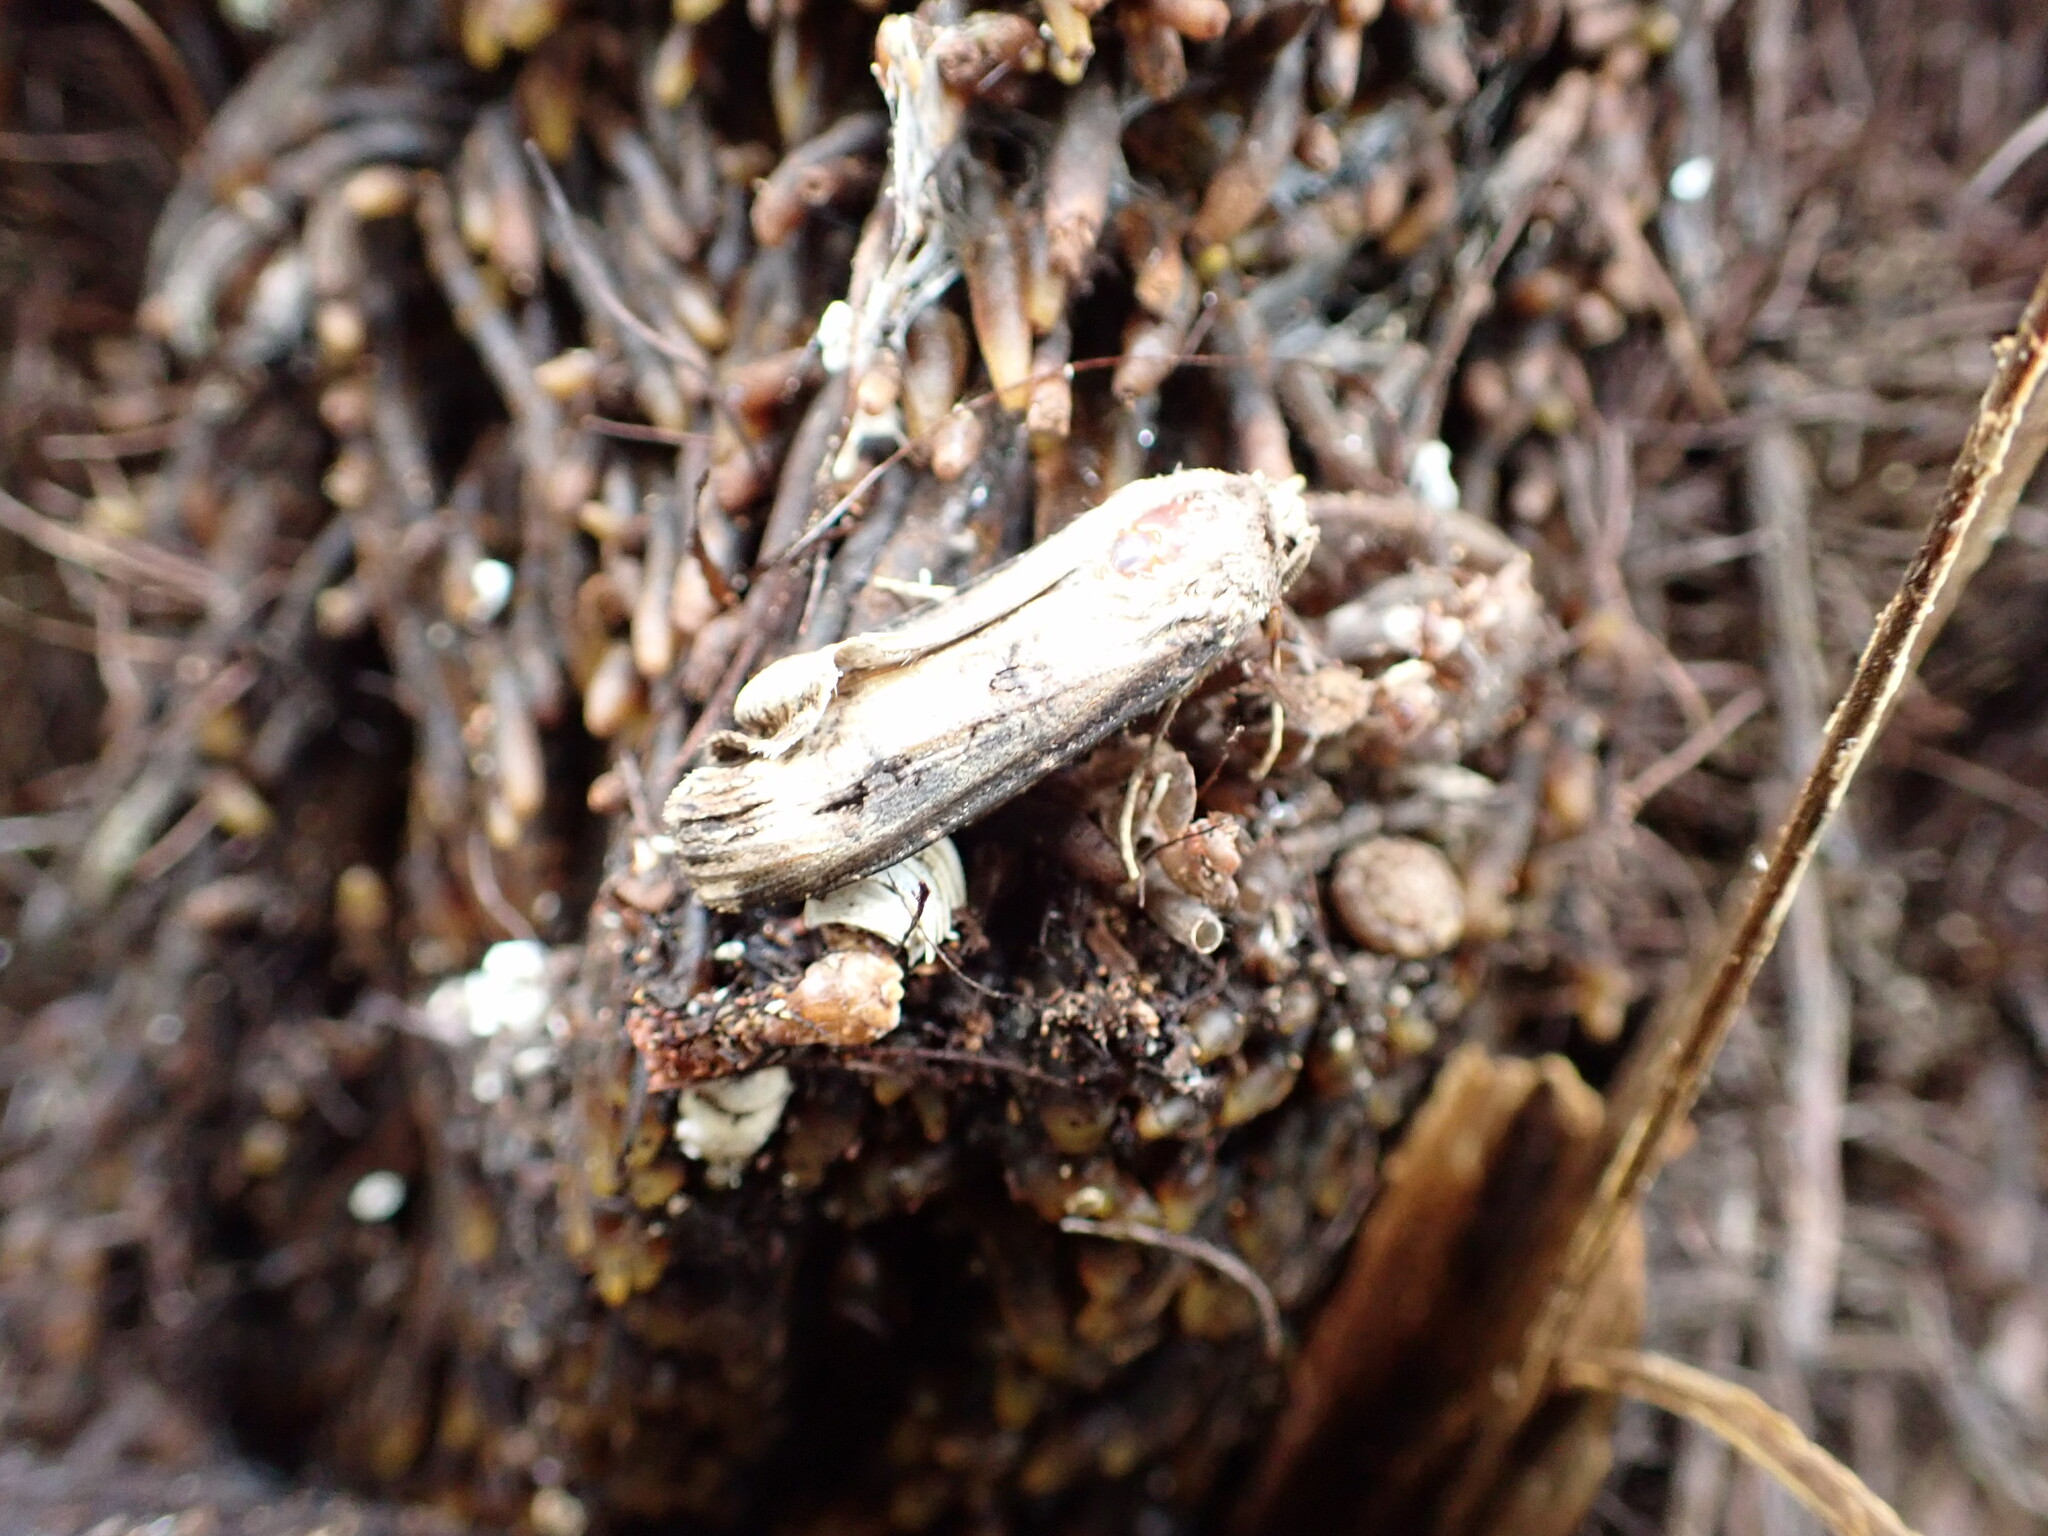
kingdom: Animalia
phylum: Arthropoda
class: Insecta
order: Lepidoptera
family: Noctuidae
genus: Agrotis
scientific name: Agrotis ipsilon
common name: Dark sword-grass
